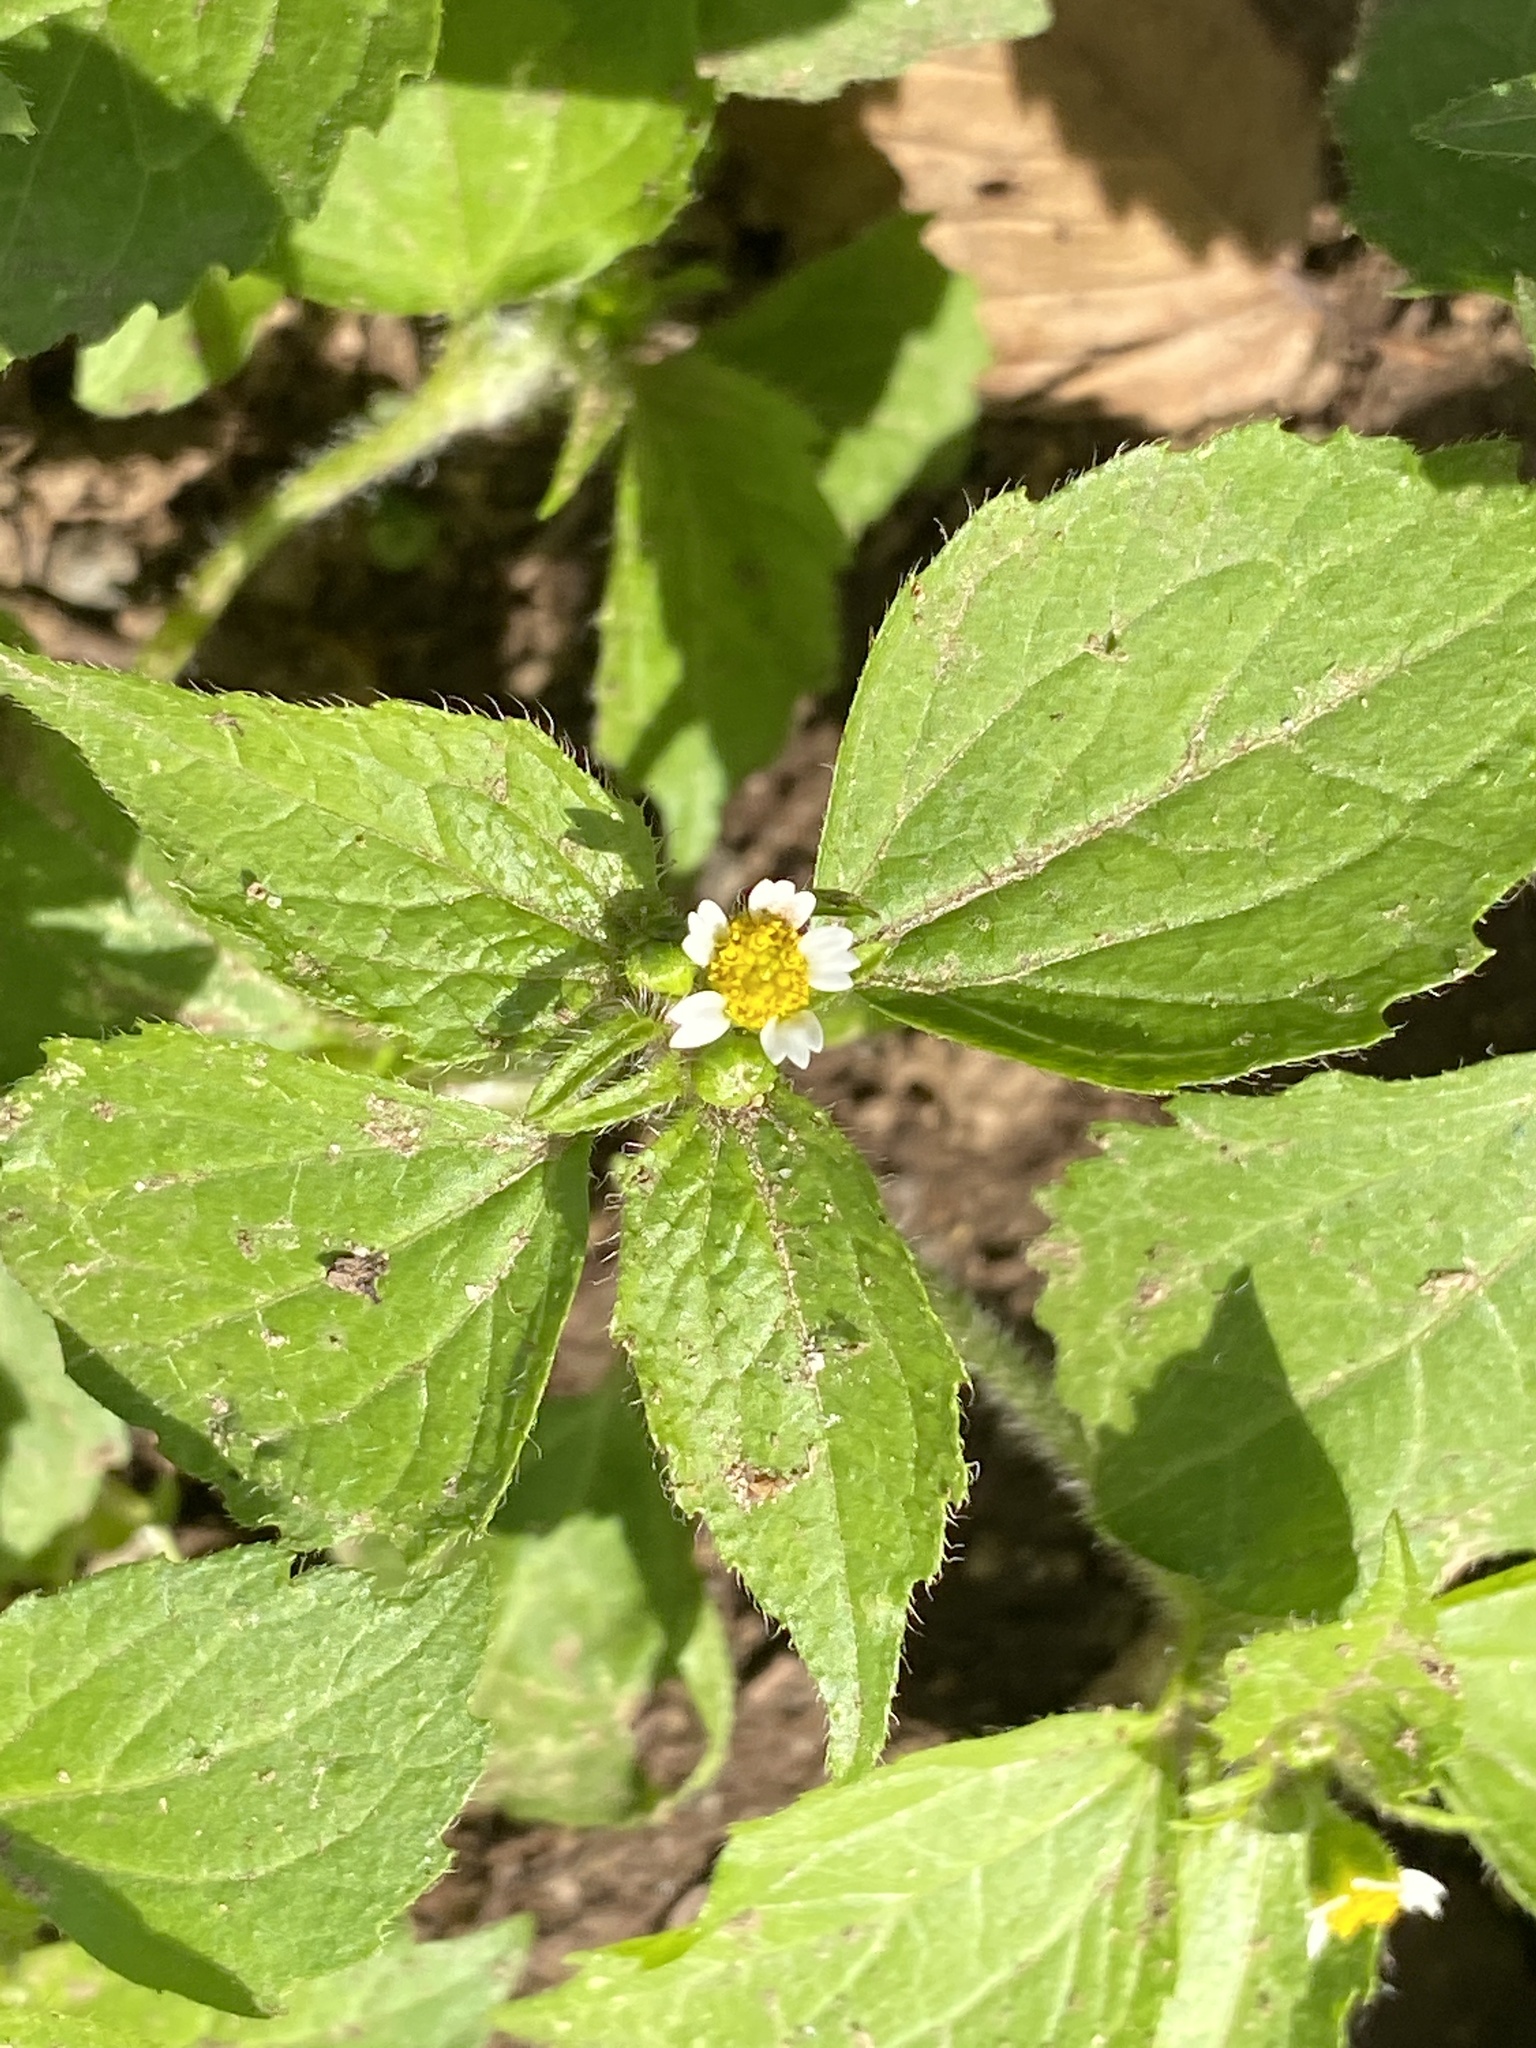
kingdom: Plantae
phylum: Tracheophyta
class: Magnoliopsida
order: Asterales
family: Asteraceae
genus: Galinsoga
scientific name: Galinsoga quadriradiata
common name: Shaggy soldier
